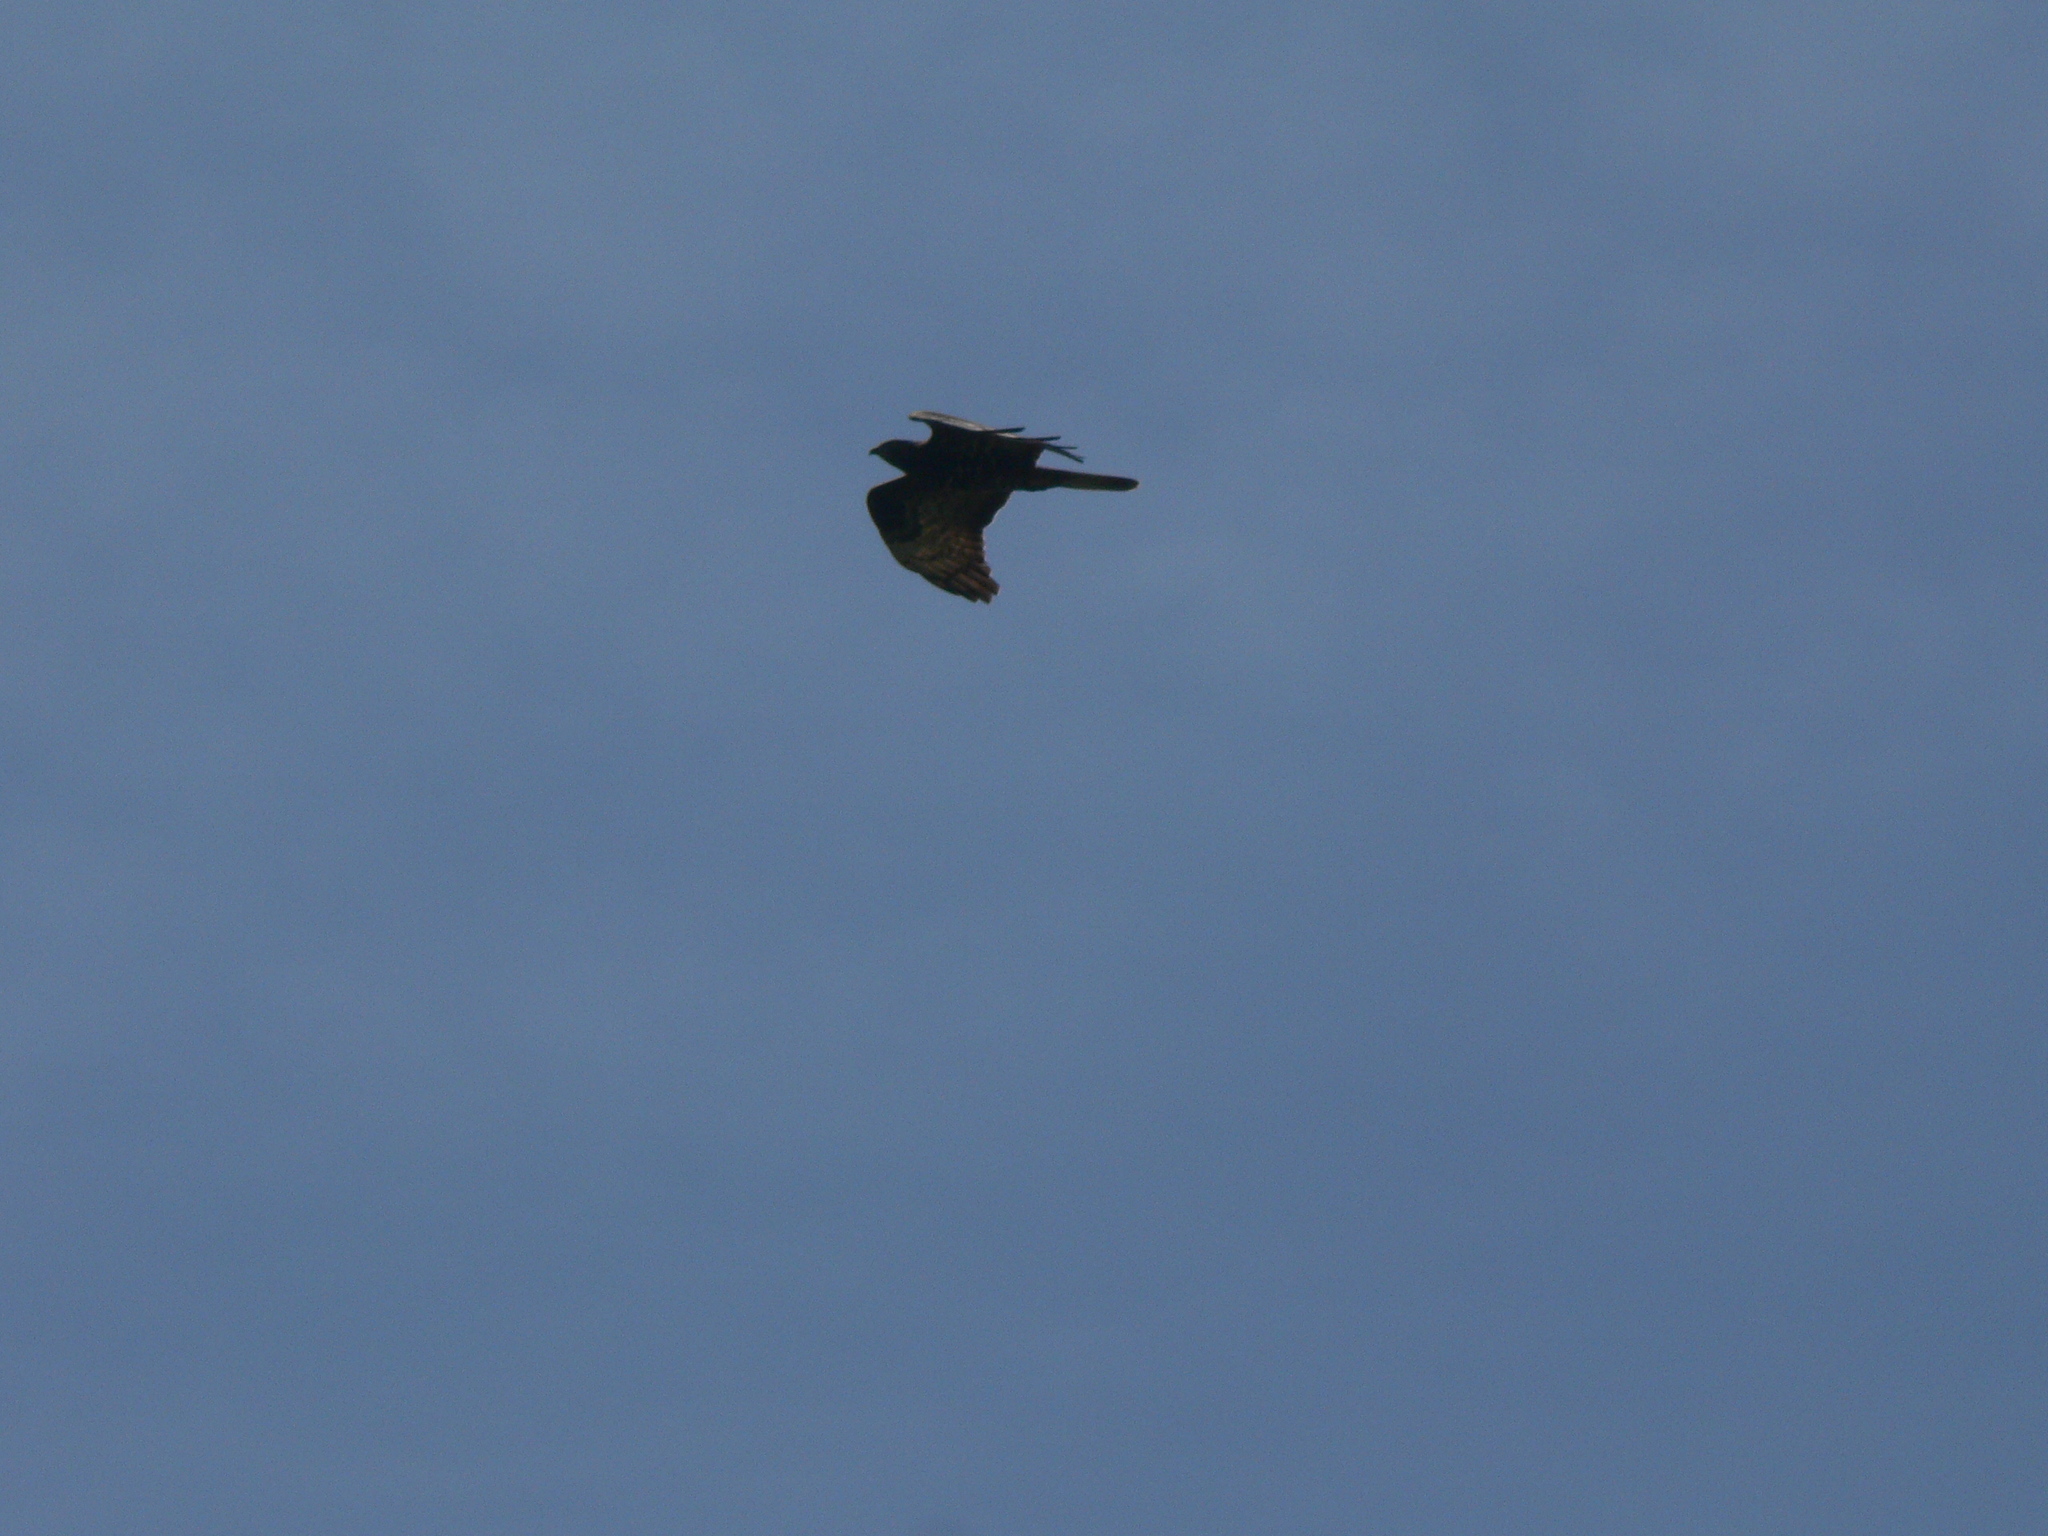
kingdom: Animalia
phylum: Chordata
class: Aves
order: Accipitriformes
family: Accipitridae
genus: Pernis
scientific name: Pernis apivorus
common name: European honey buzzard
